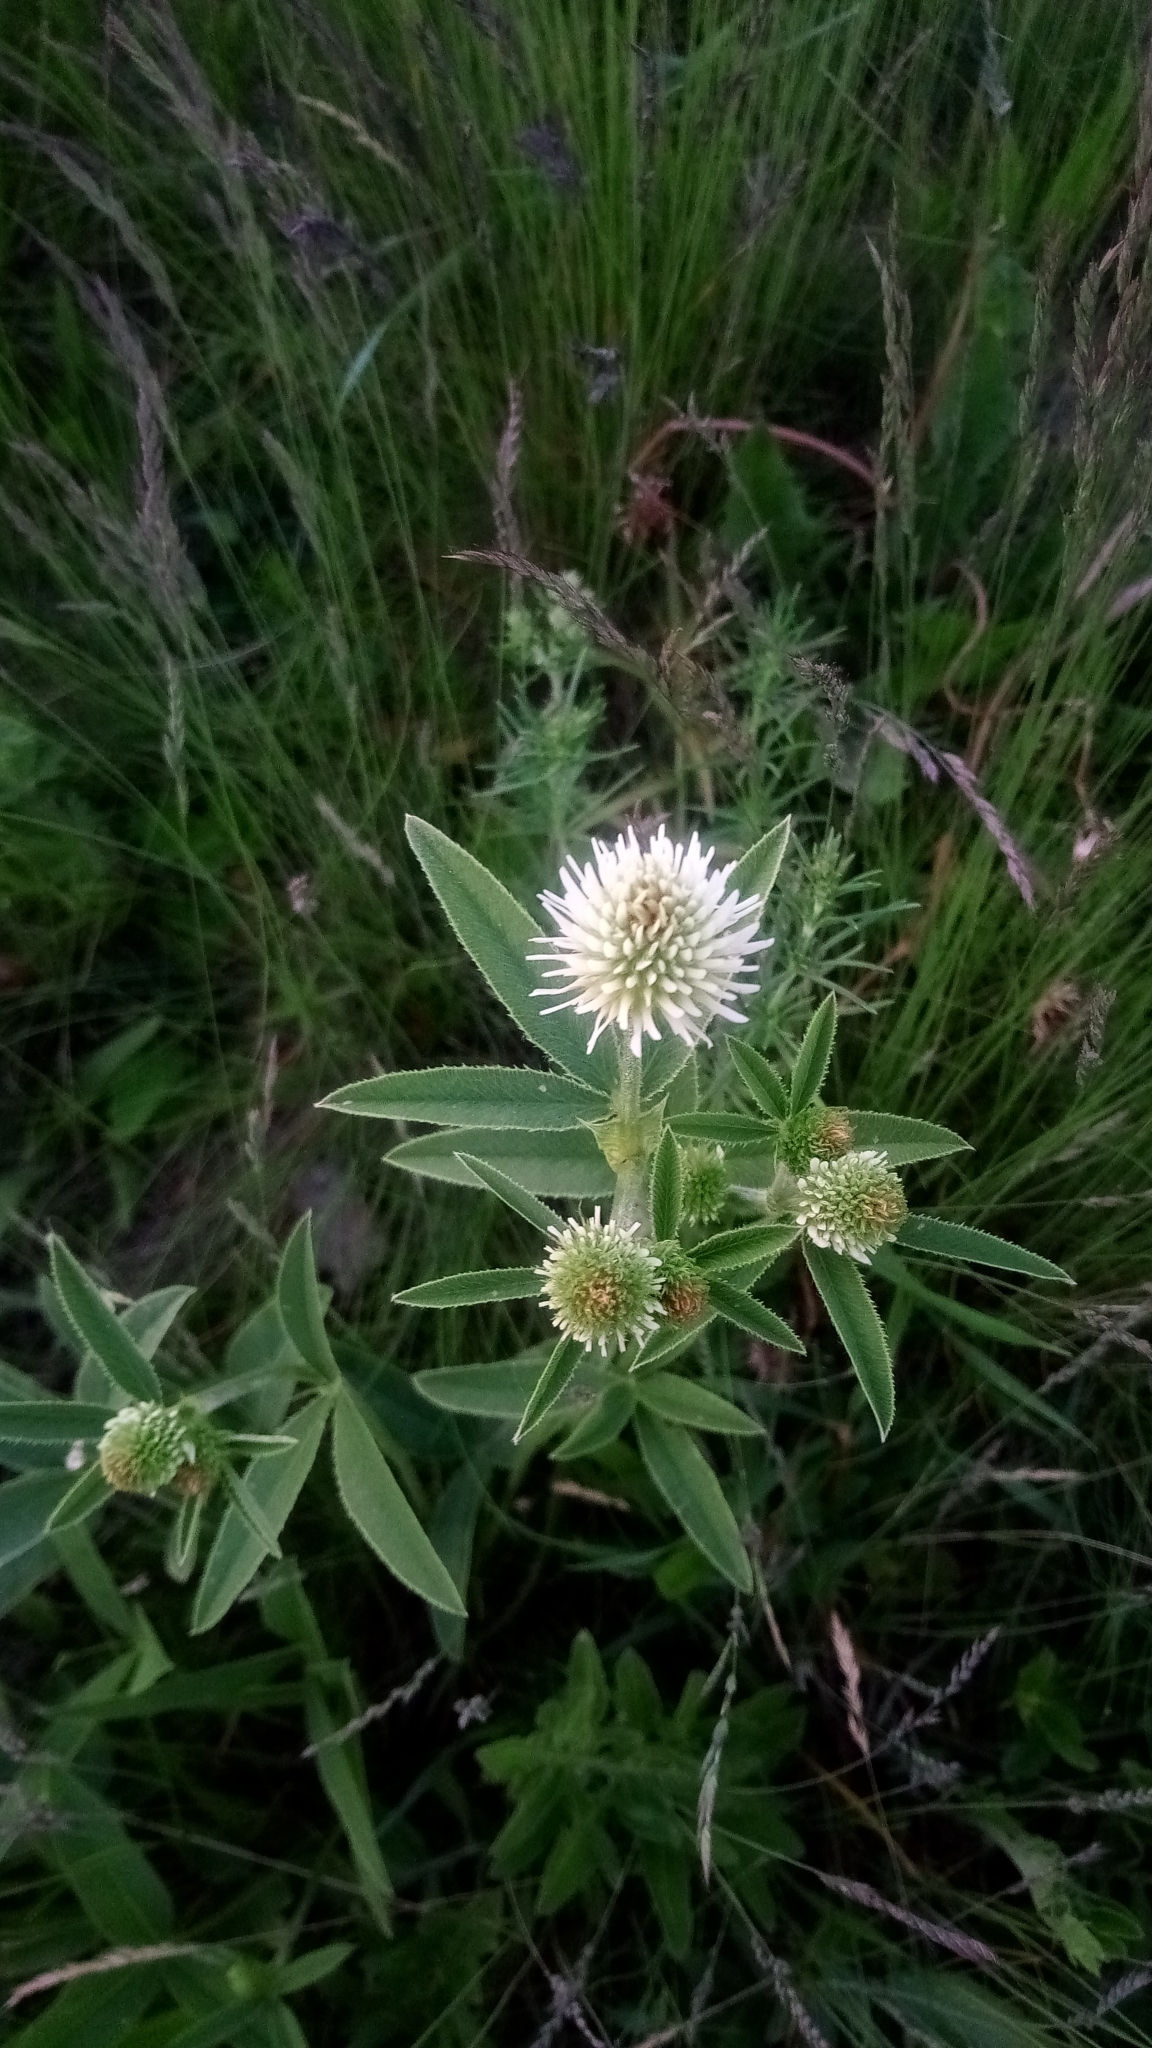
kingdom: Plantae
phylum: Tracheophyta
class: Magnoliopsida
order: Fabales
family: Fabaceae
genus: Trifolium
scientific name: Trifolium montanum
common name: Mountain clover
